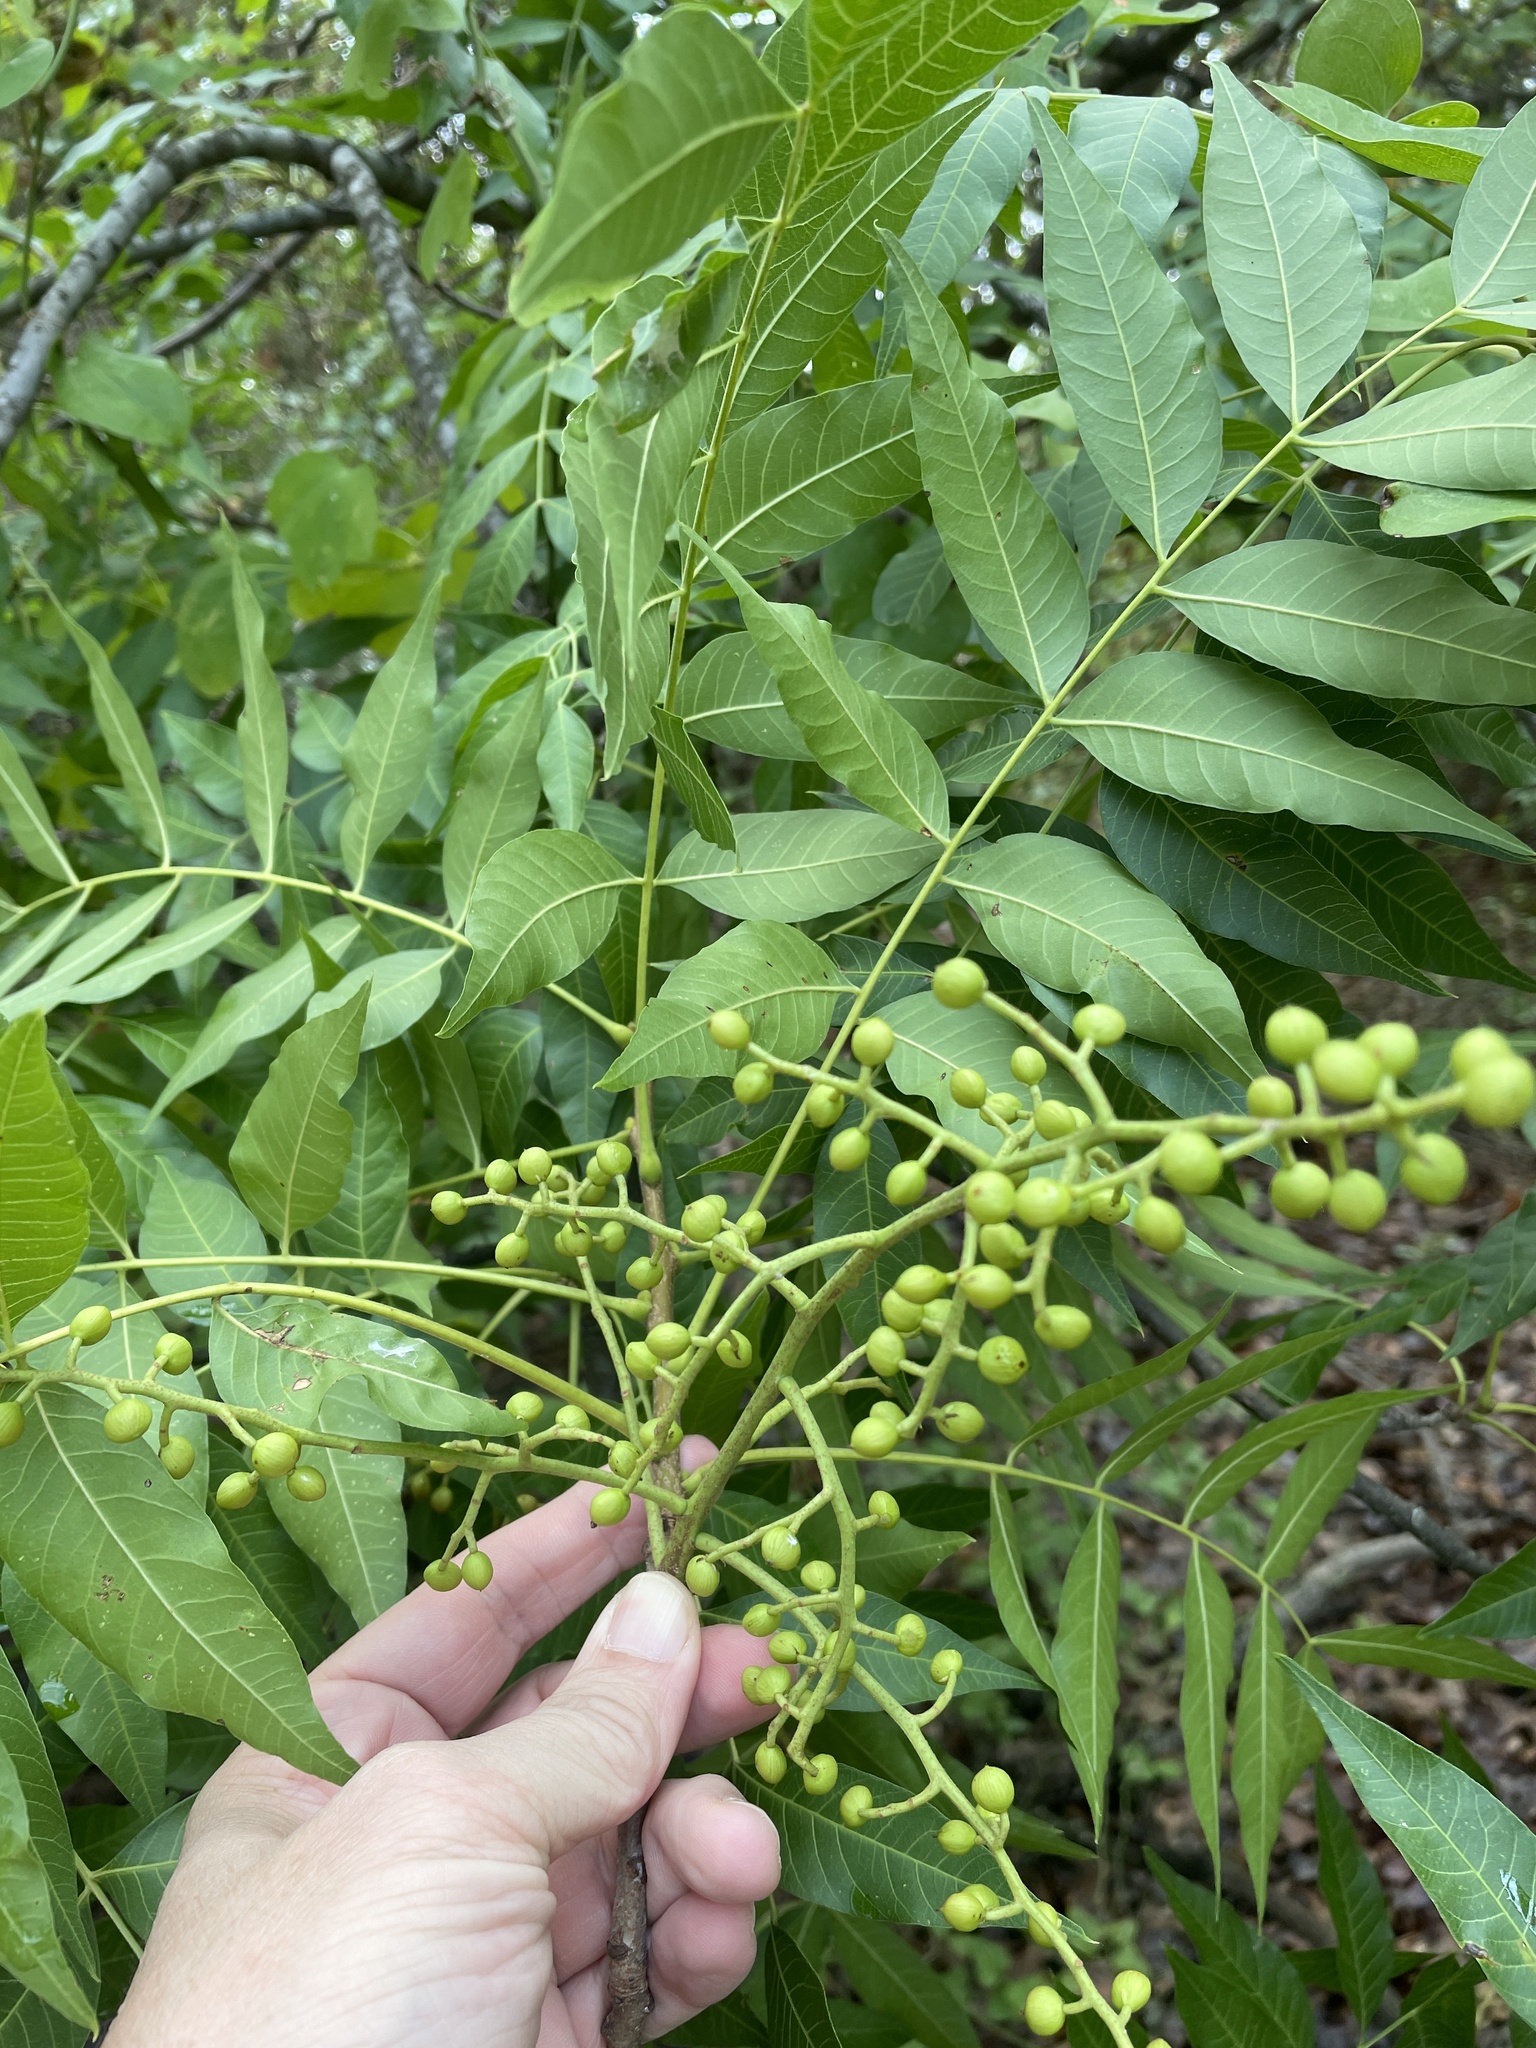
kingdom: Plantae
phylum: Tracheophyta
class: Magnoliopsida
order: Sapindales
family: Anacardiaceae
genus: Pistacia
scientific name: Pistacia chinensis
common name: Chinese pistache
